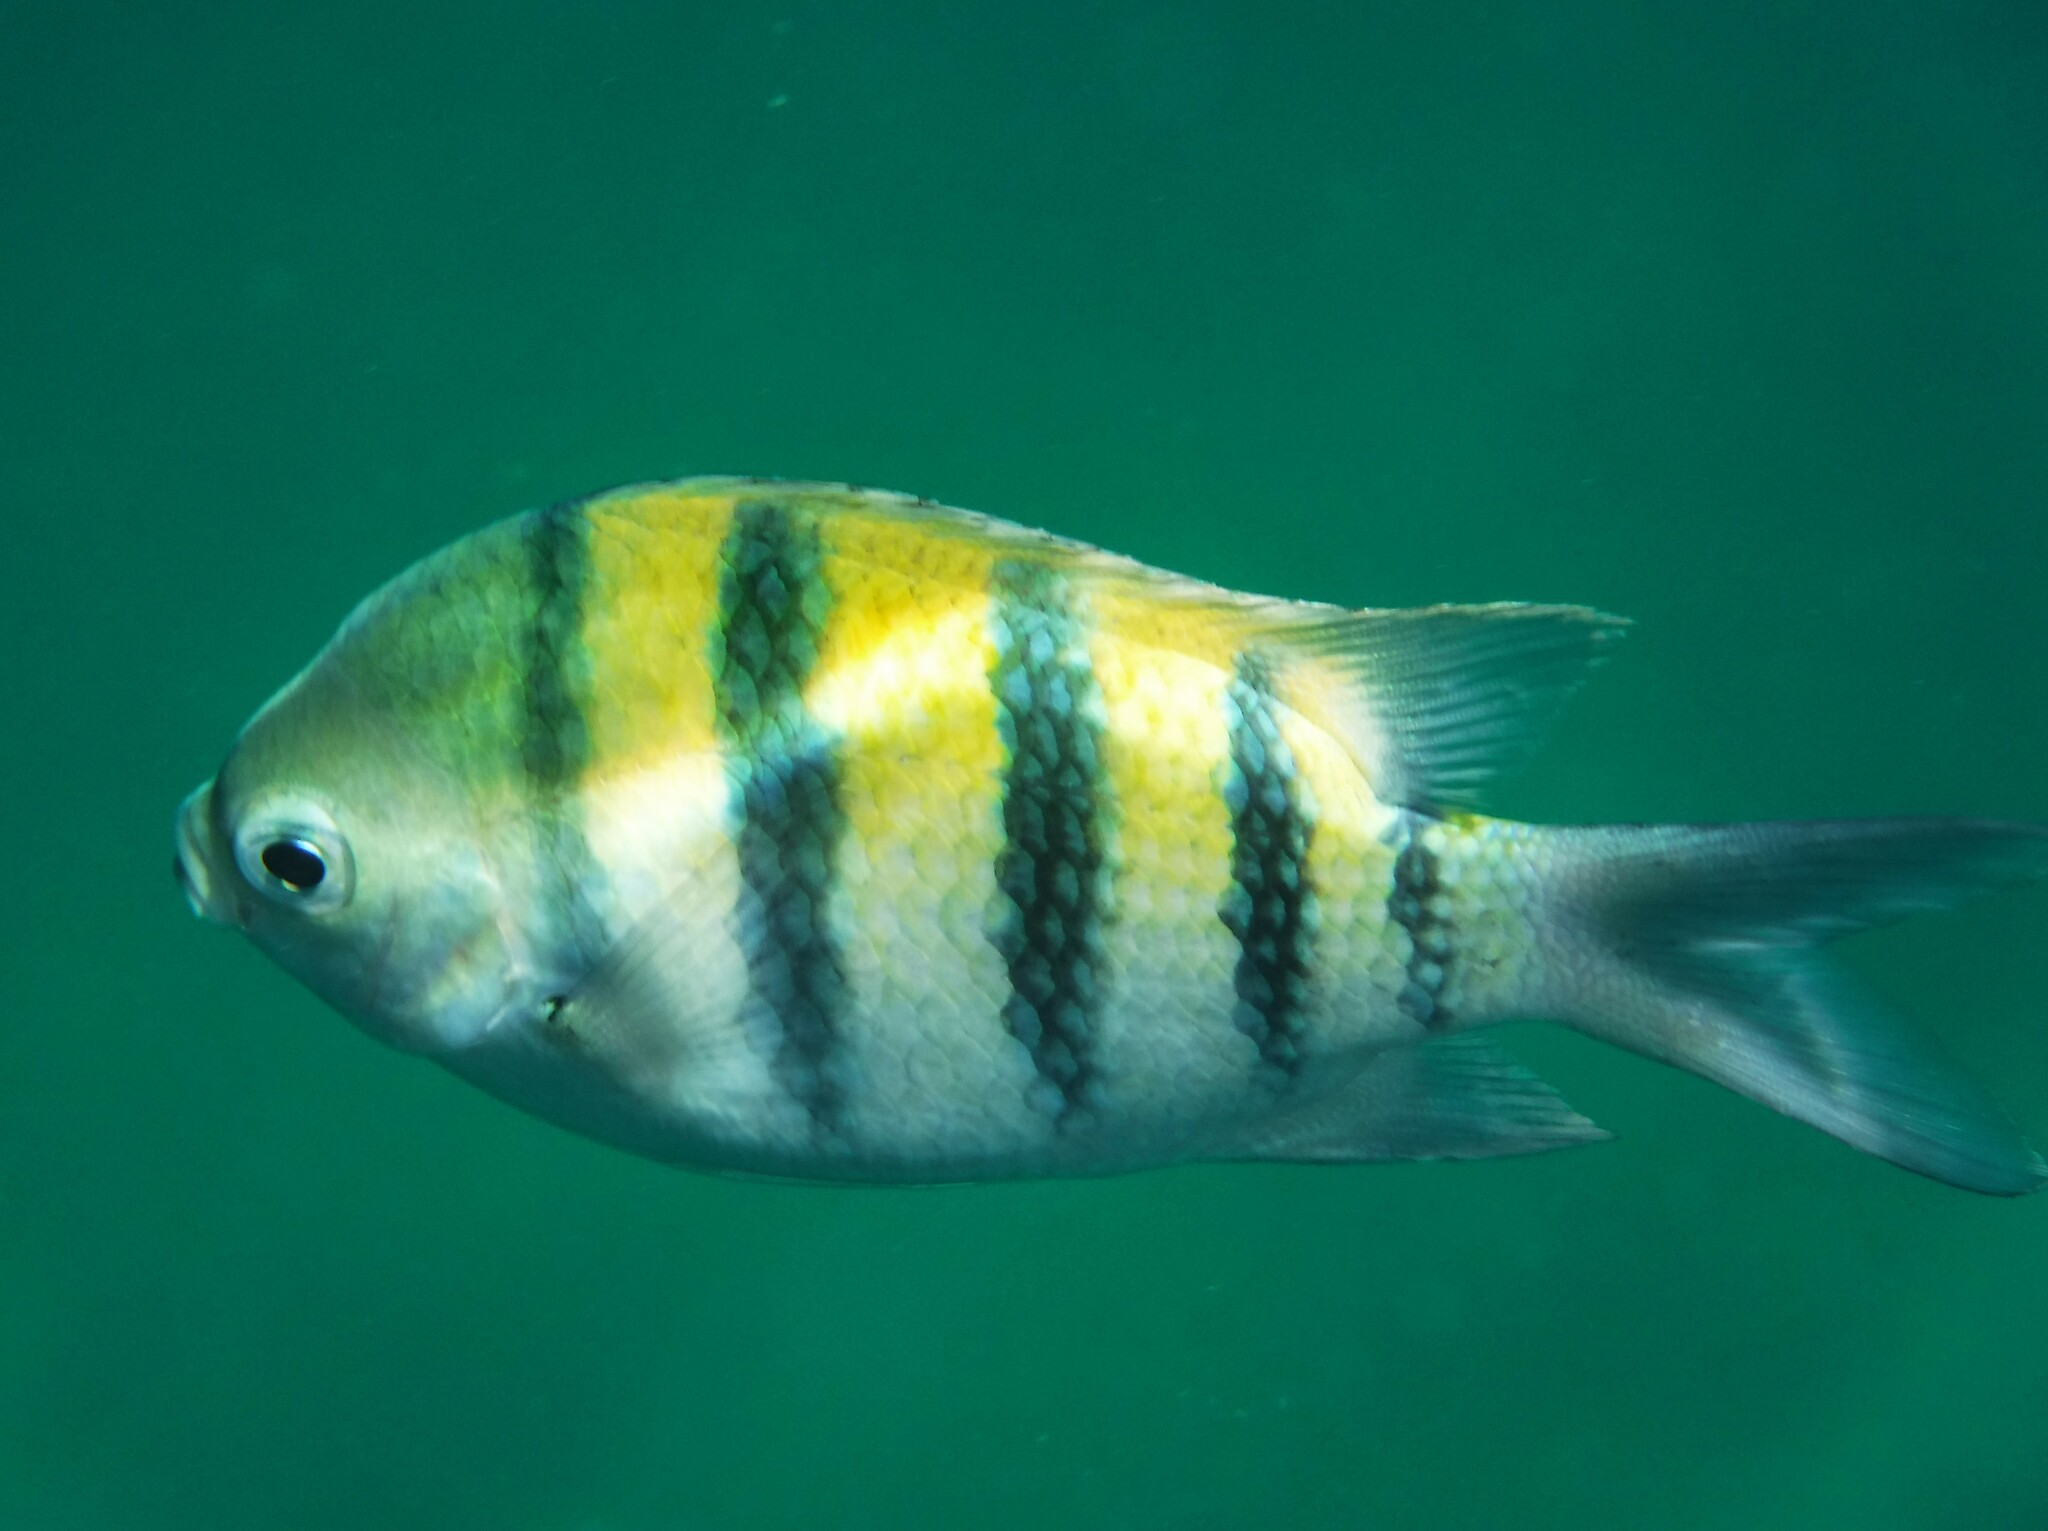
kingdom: Animalia
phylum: Chordata
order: Perciformes
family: Pomacentridae
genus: Abudefduf
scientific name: Abudefduf saxatilis
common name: Sergeant major
